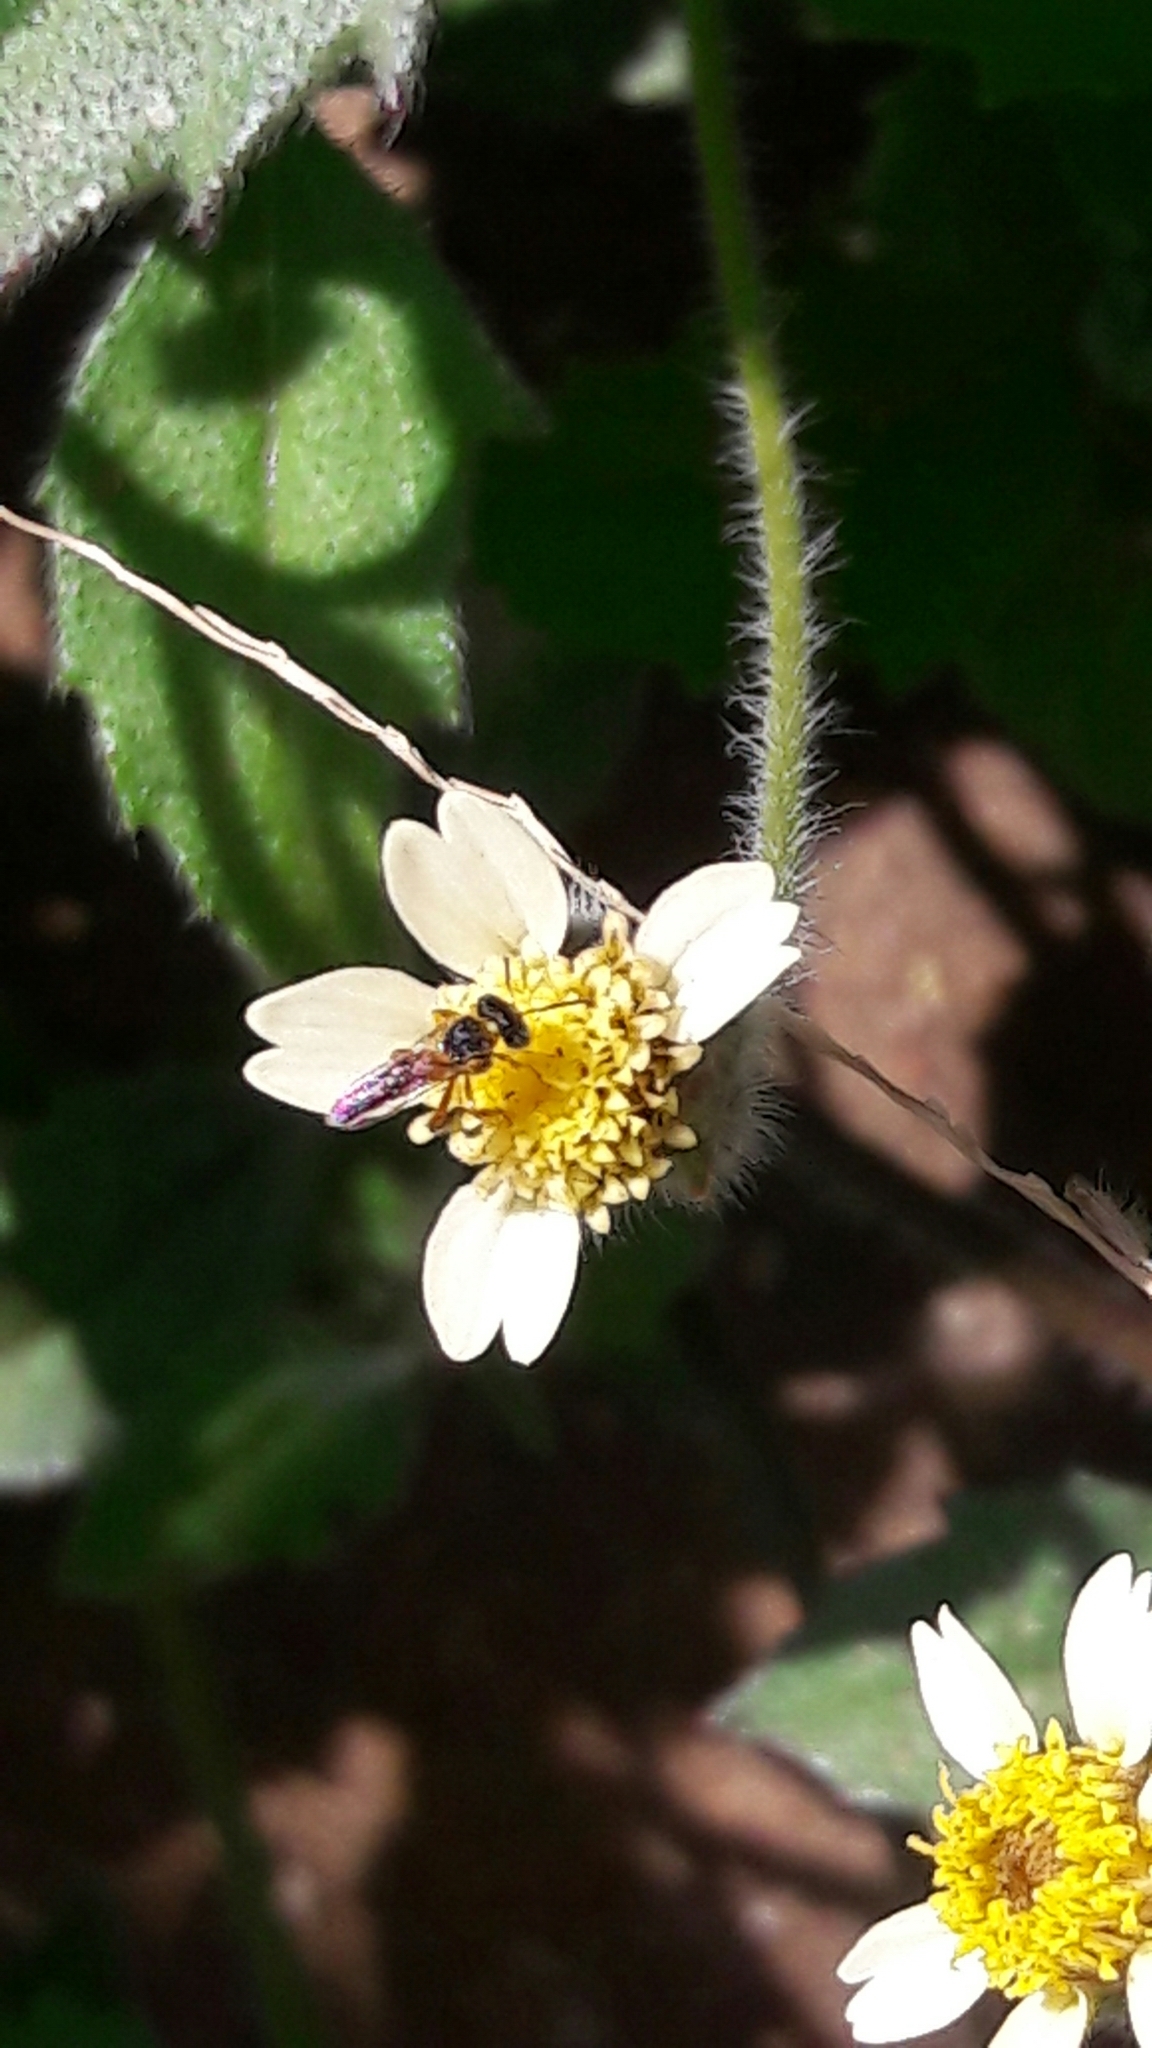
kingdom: Animalia
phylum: Arthropoda
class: Insecta
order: Hymenoptera
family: Apidae
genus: Tetragonisca
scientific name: Tetragonisca angustula
